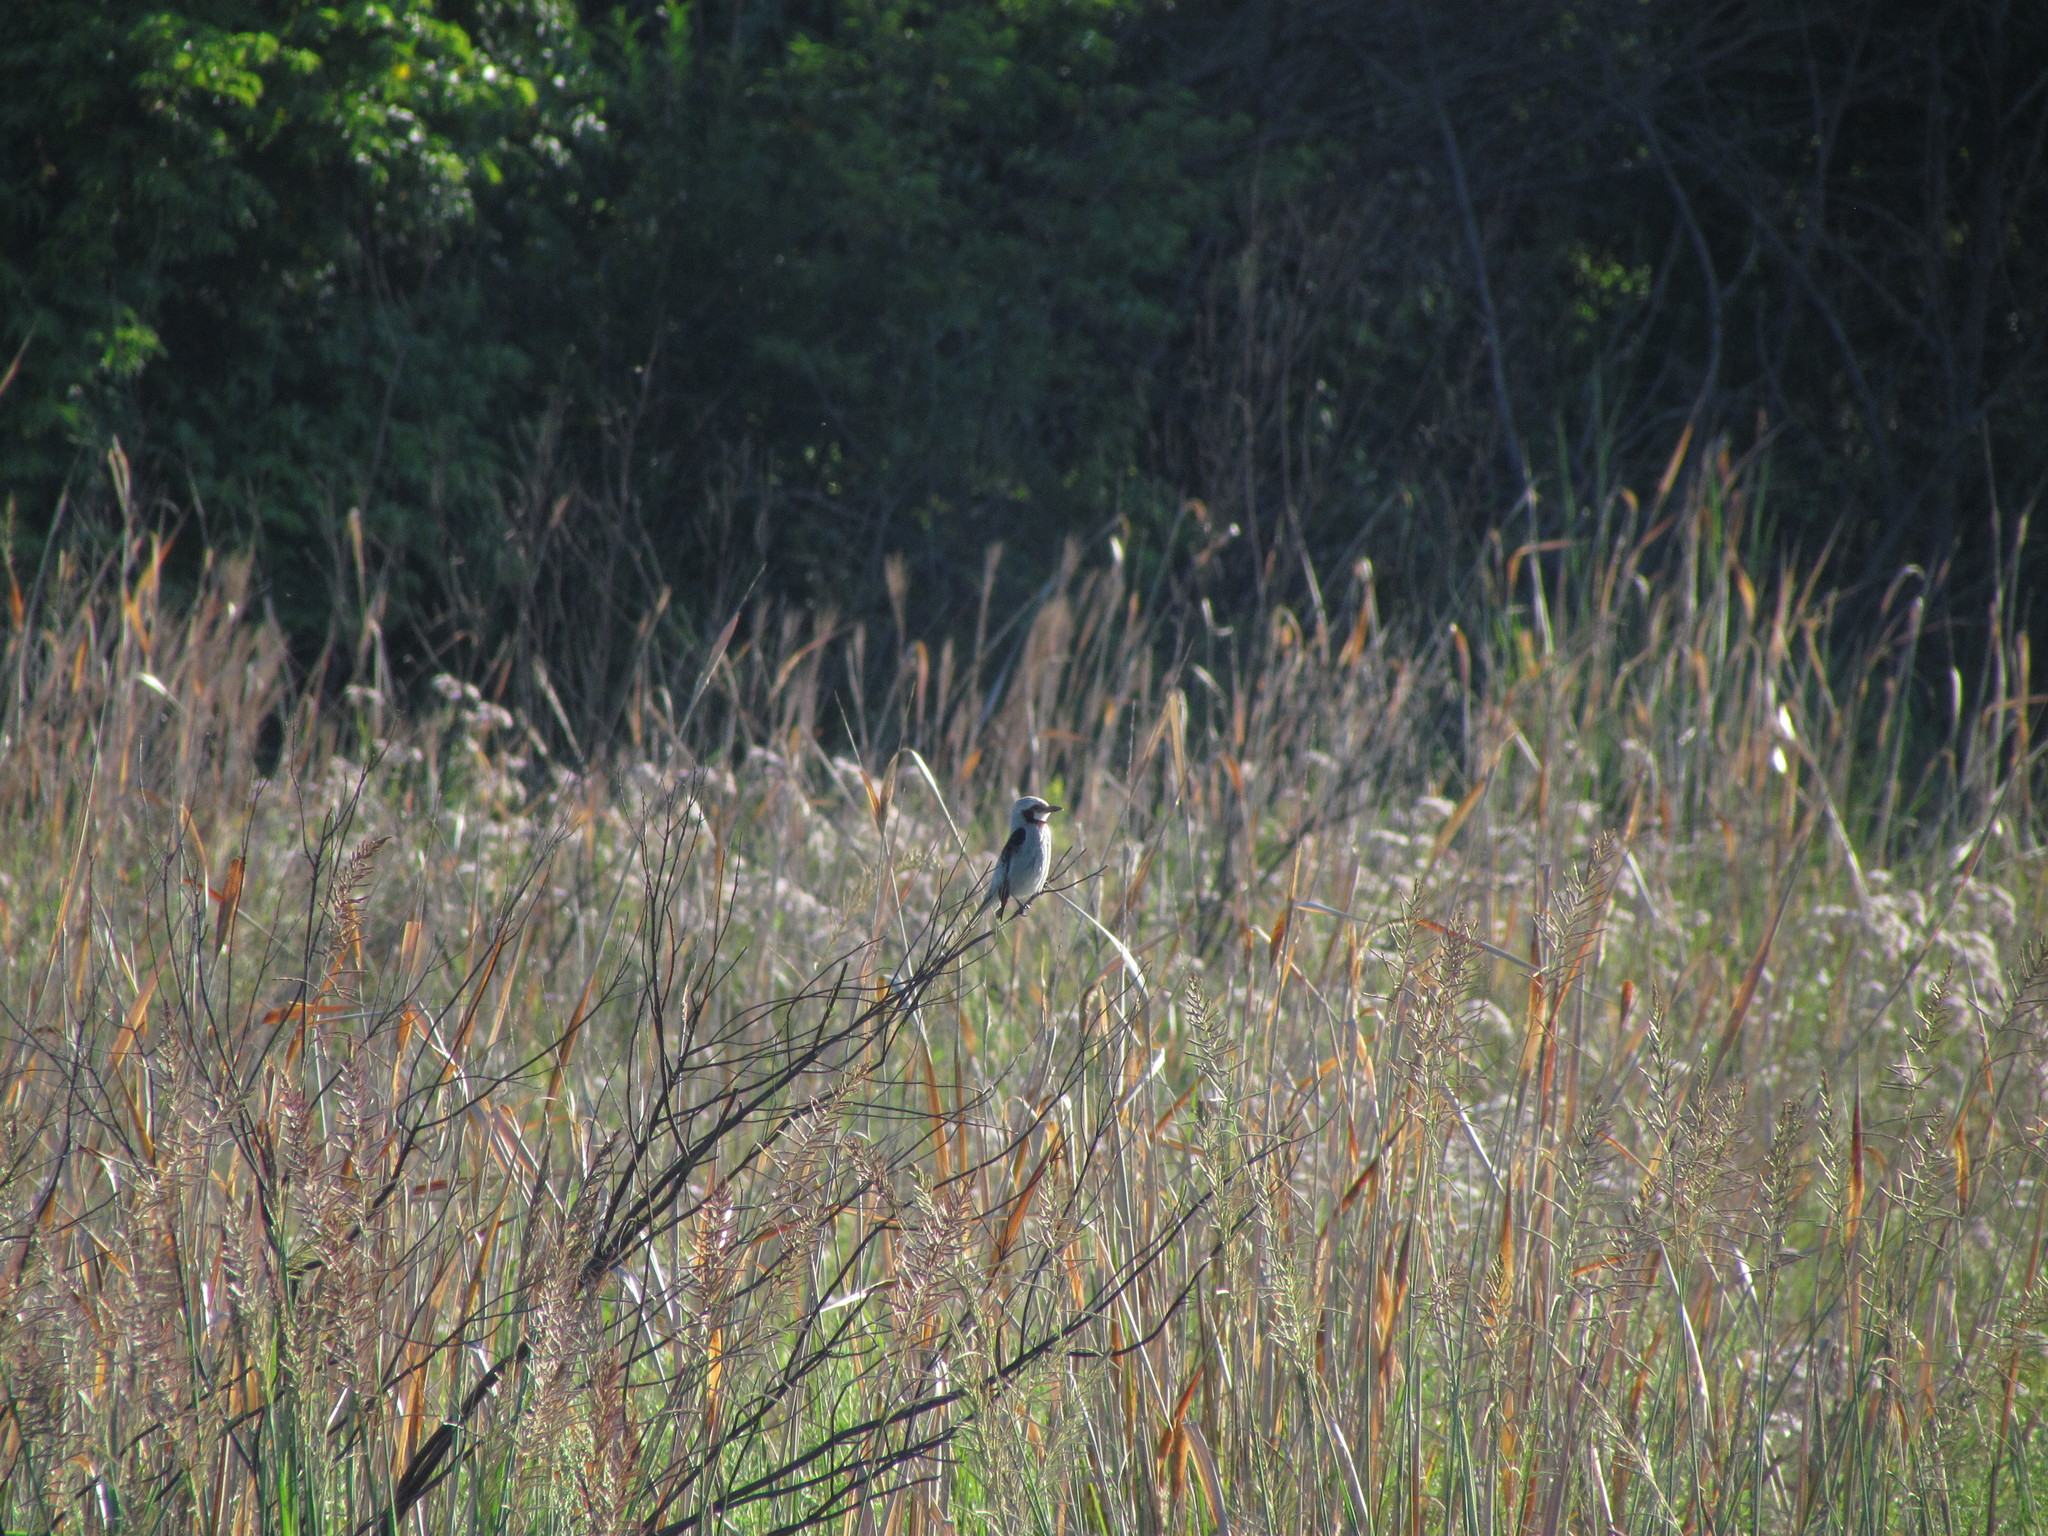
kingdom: Animalia
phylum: Chordata
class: Aves
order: Passeriformes
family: Tyrannidae
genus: Gubernetes
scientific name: Gubernetes yetapa
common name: Streamer-tailed tyrant
